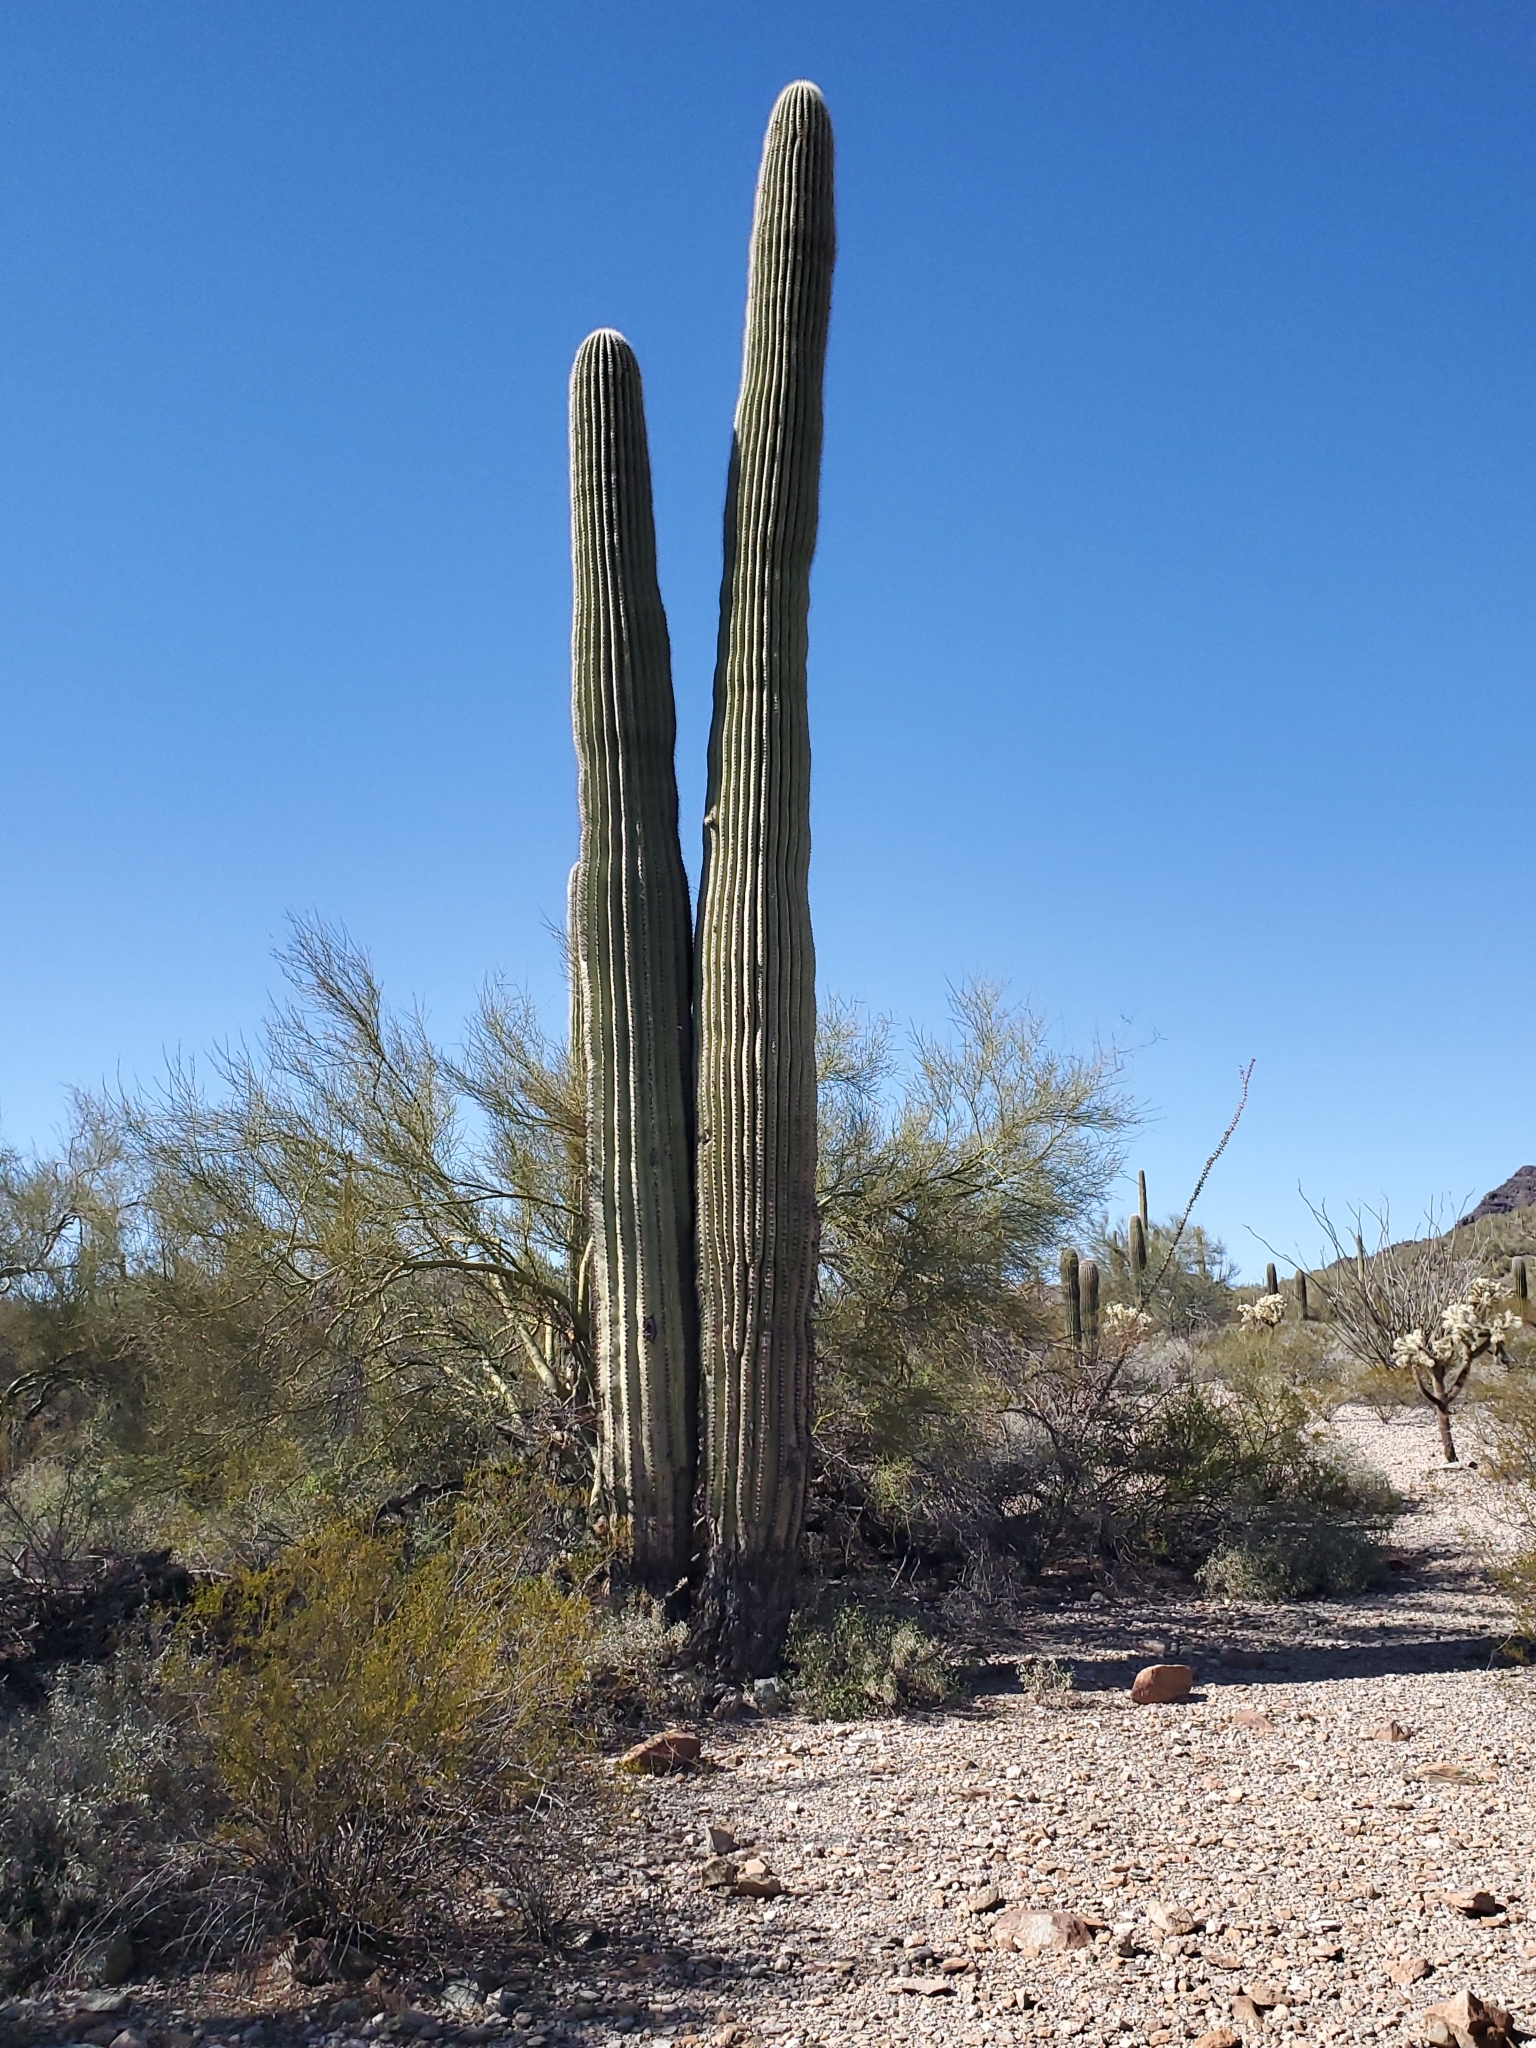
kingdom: Plantae
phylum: Tracheophyta
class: Magnoliopsida
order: Caryophyllales
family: Cactaceae
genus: Carnegiea
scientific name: Carnegiea gigantea
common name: Saguaro
